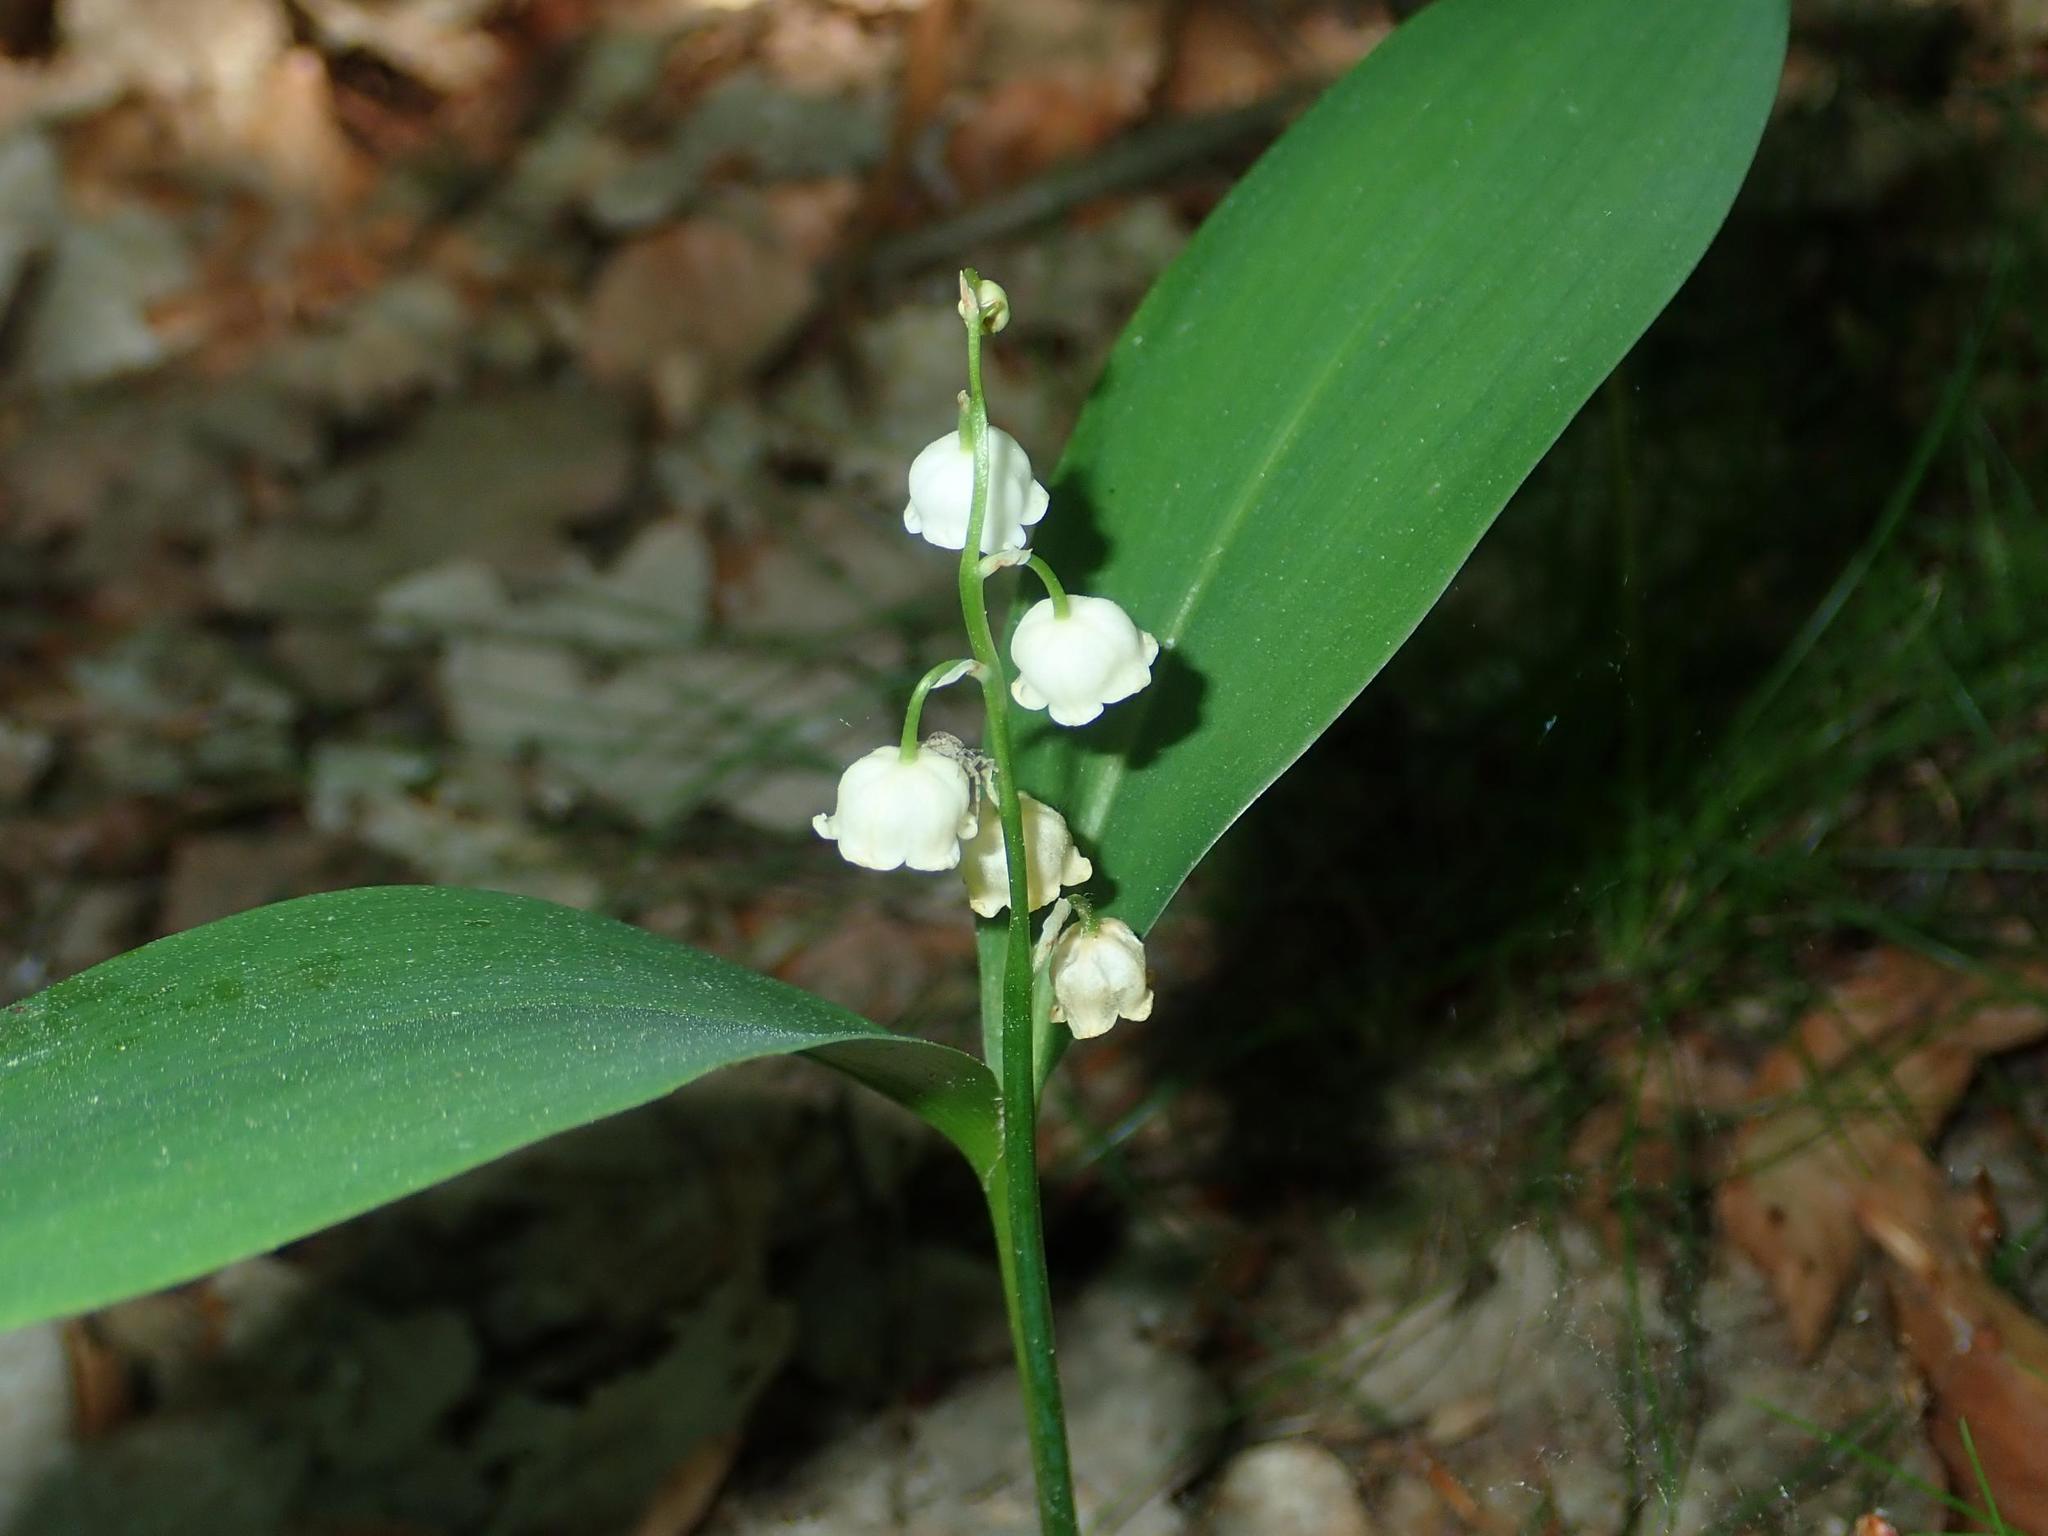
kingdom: Plantae
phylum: Tracheophyta
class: Liliopsida
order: Asparagales
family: Asparagaceae
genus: Convallaria
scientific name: Convallaria majalis
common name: Lily-of-the-valley
